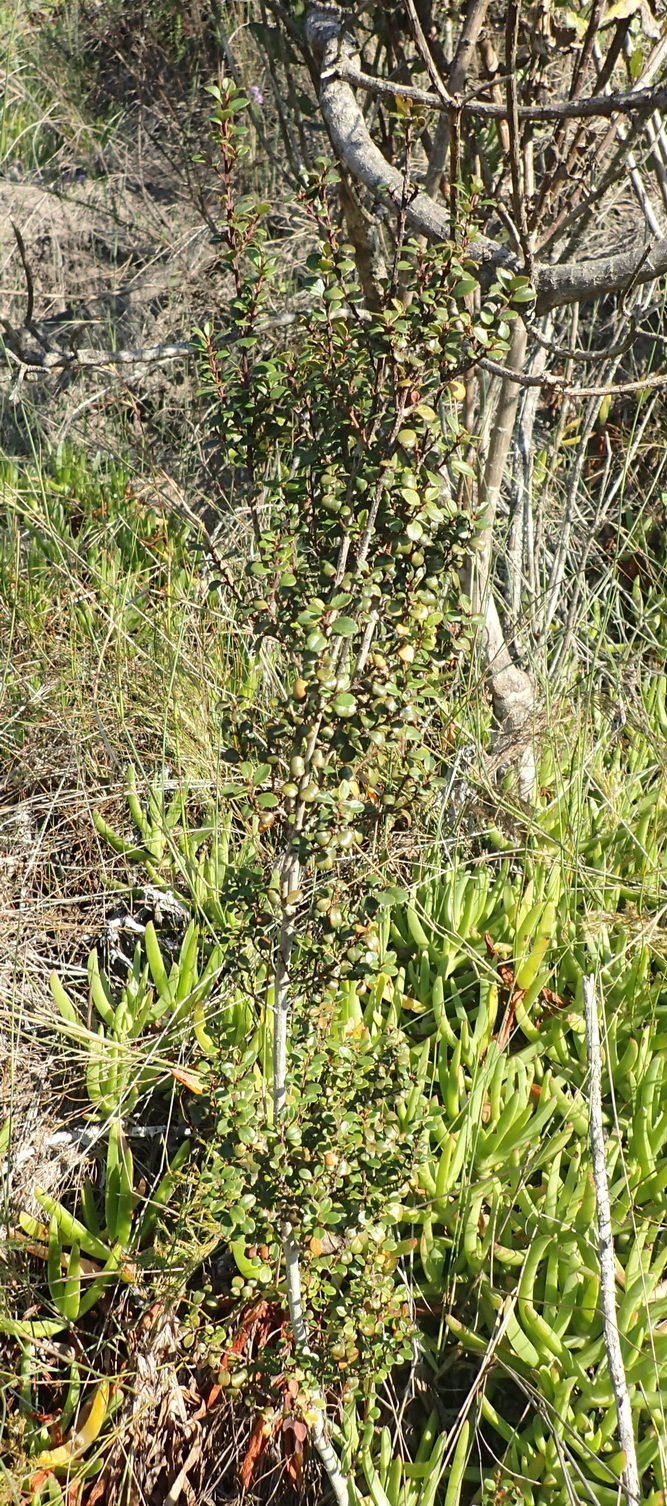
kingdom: Plantae
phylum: Tracheophyta
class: Magnoliopsida
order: Ericales
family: Primulaceae
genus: Myrsine
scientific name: Myrsine africana
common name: African-boxwood
